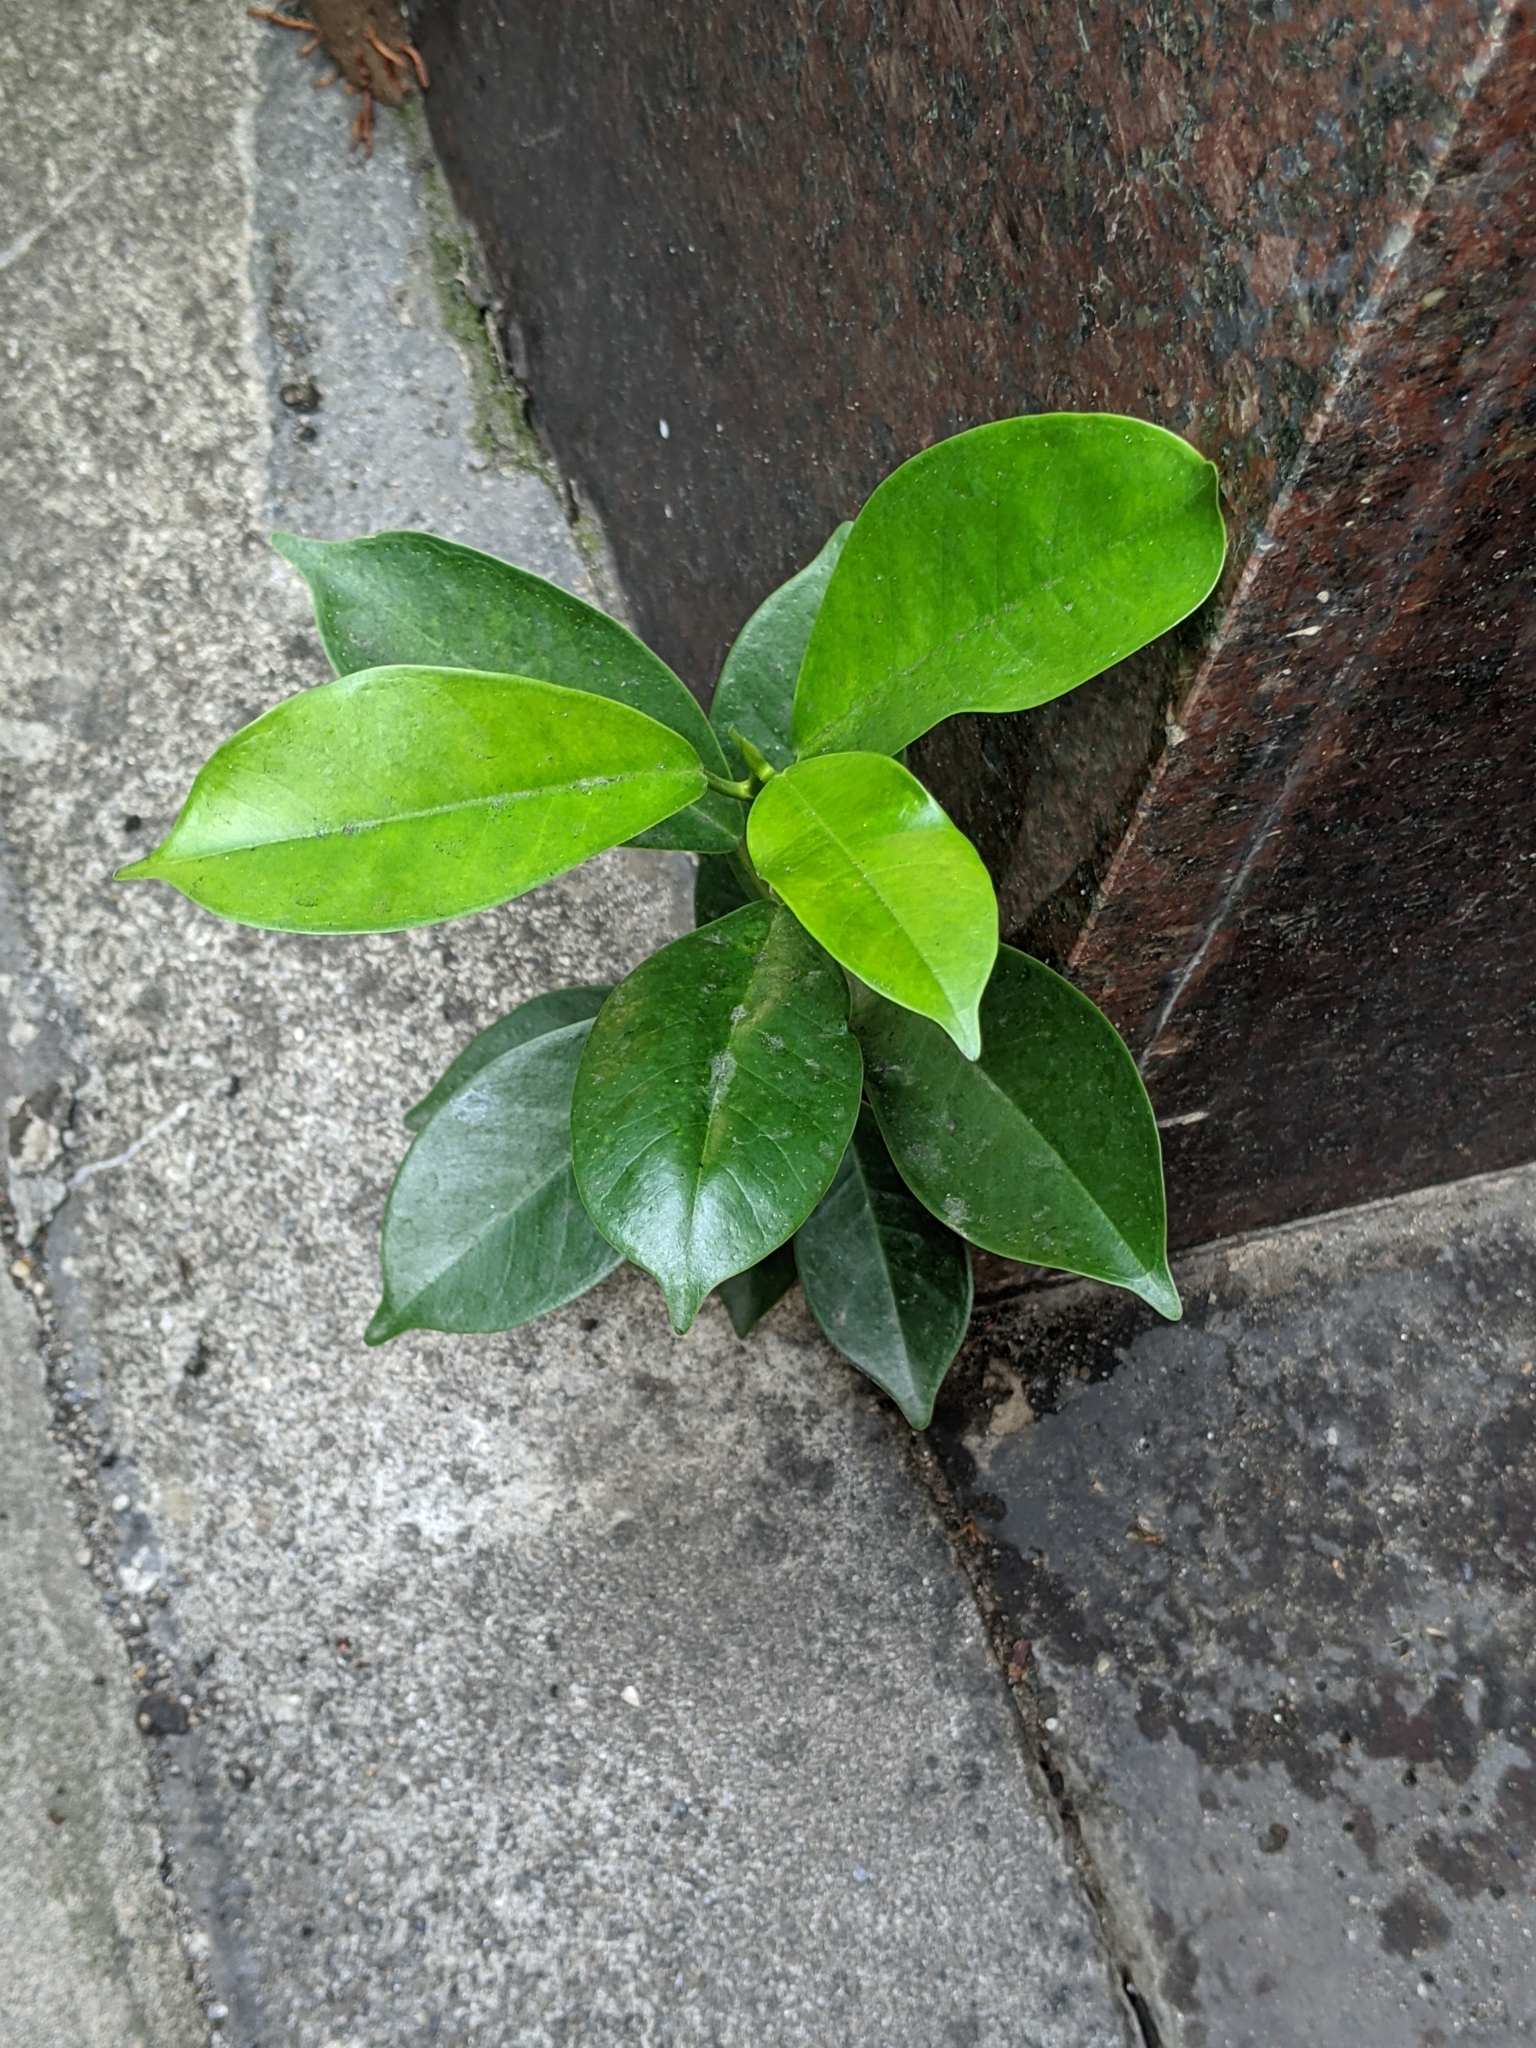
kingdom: Plantae
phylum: Tracheophyta
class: Magnoliopsida
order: Rosales
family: Moraceae
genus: Ficus
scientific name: Ficus microcarpa
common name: Chinese banyan
